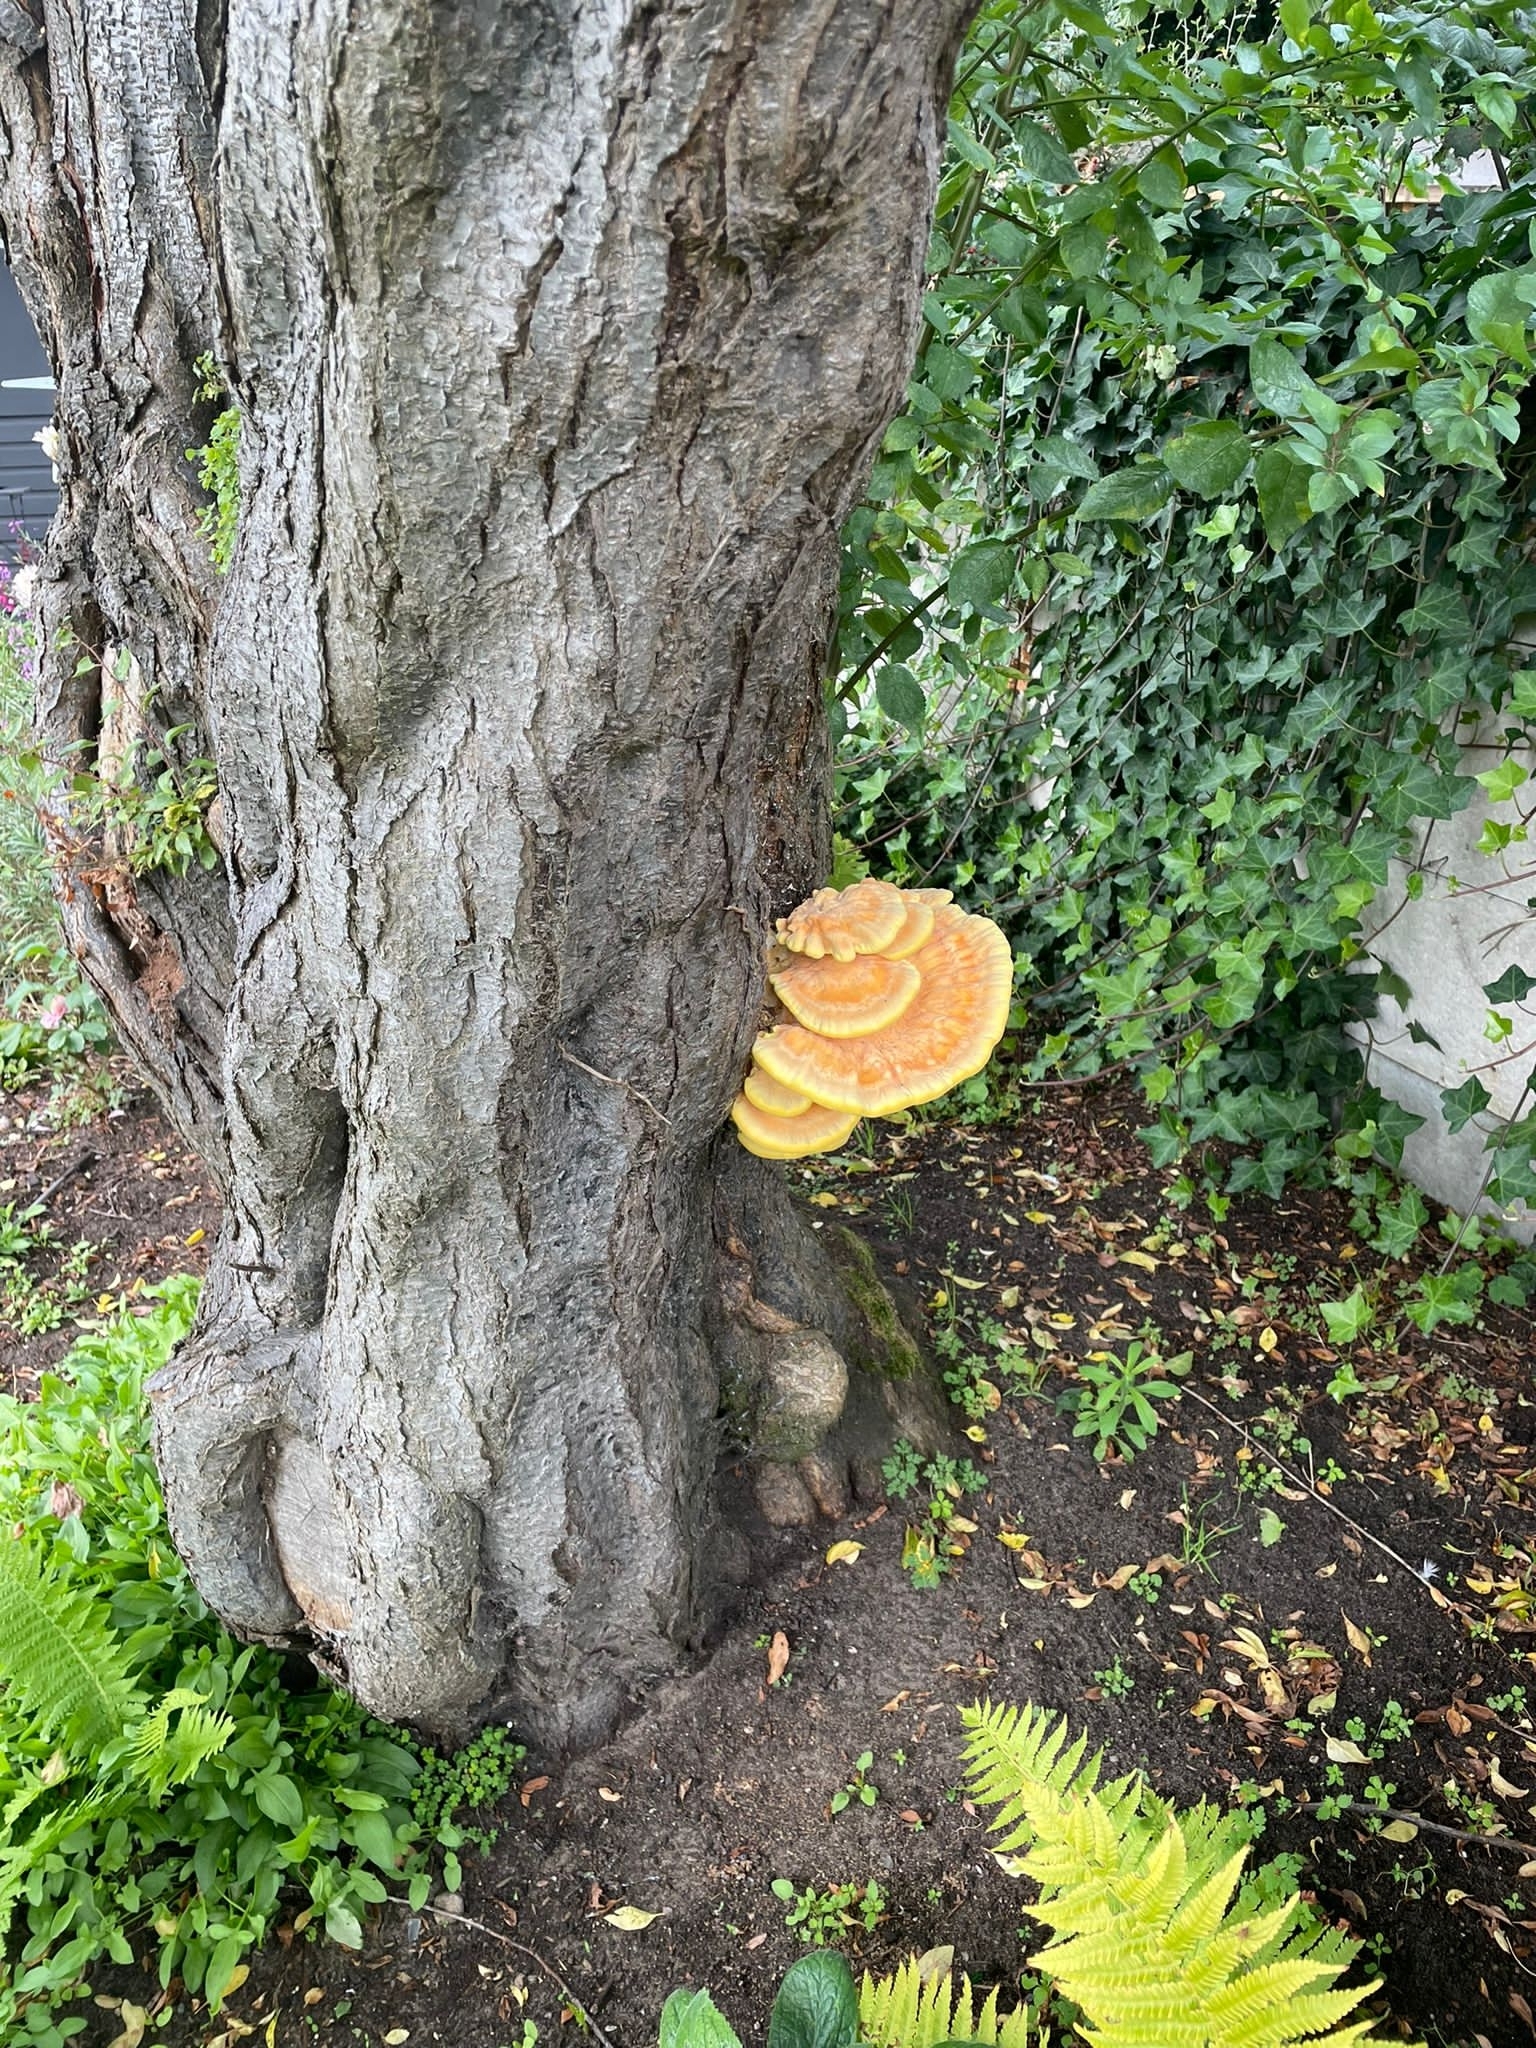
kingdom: Fungi
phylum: Basidiomycota
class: Agaricomycetes
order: Polyporales
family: Laetiporaceae
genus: Laetiporus
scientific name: Laetiporus sulphureus
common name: Chicken of the woods
